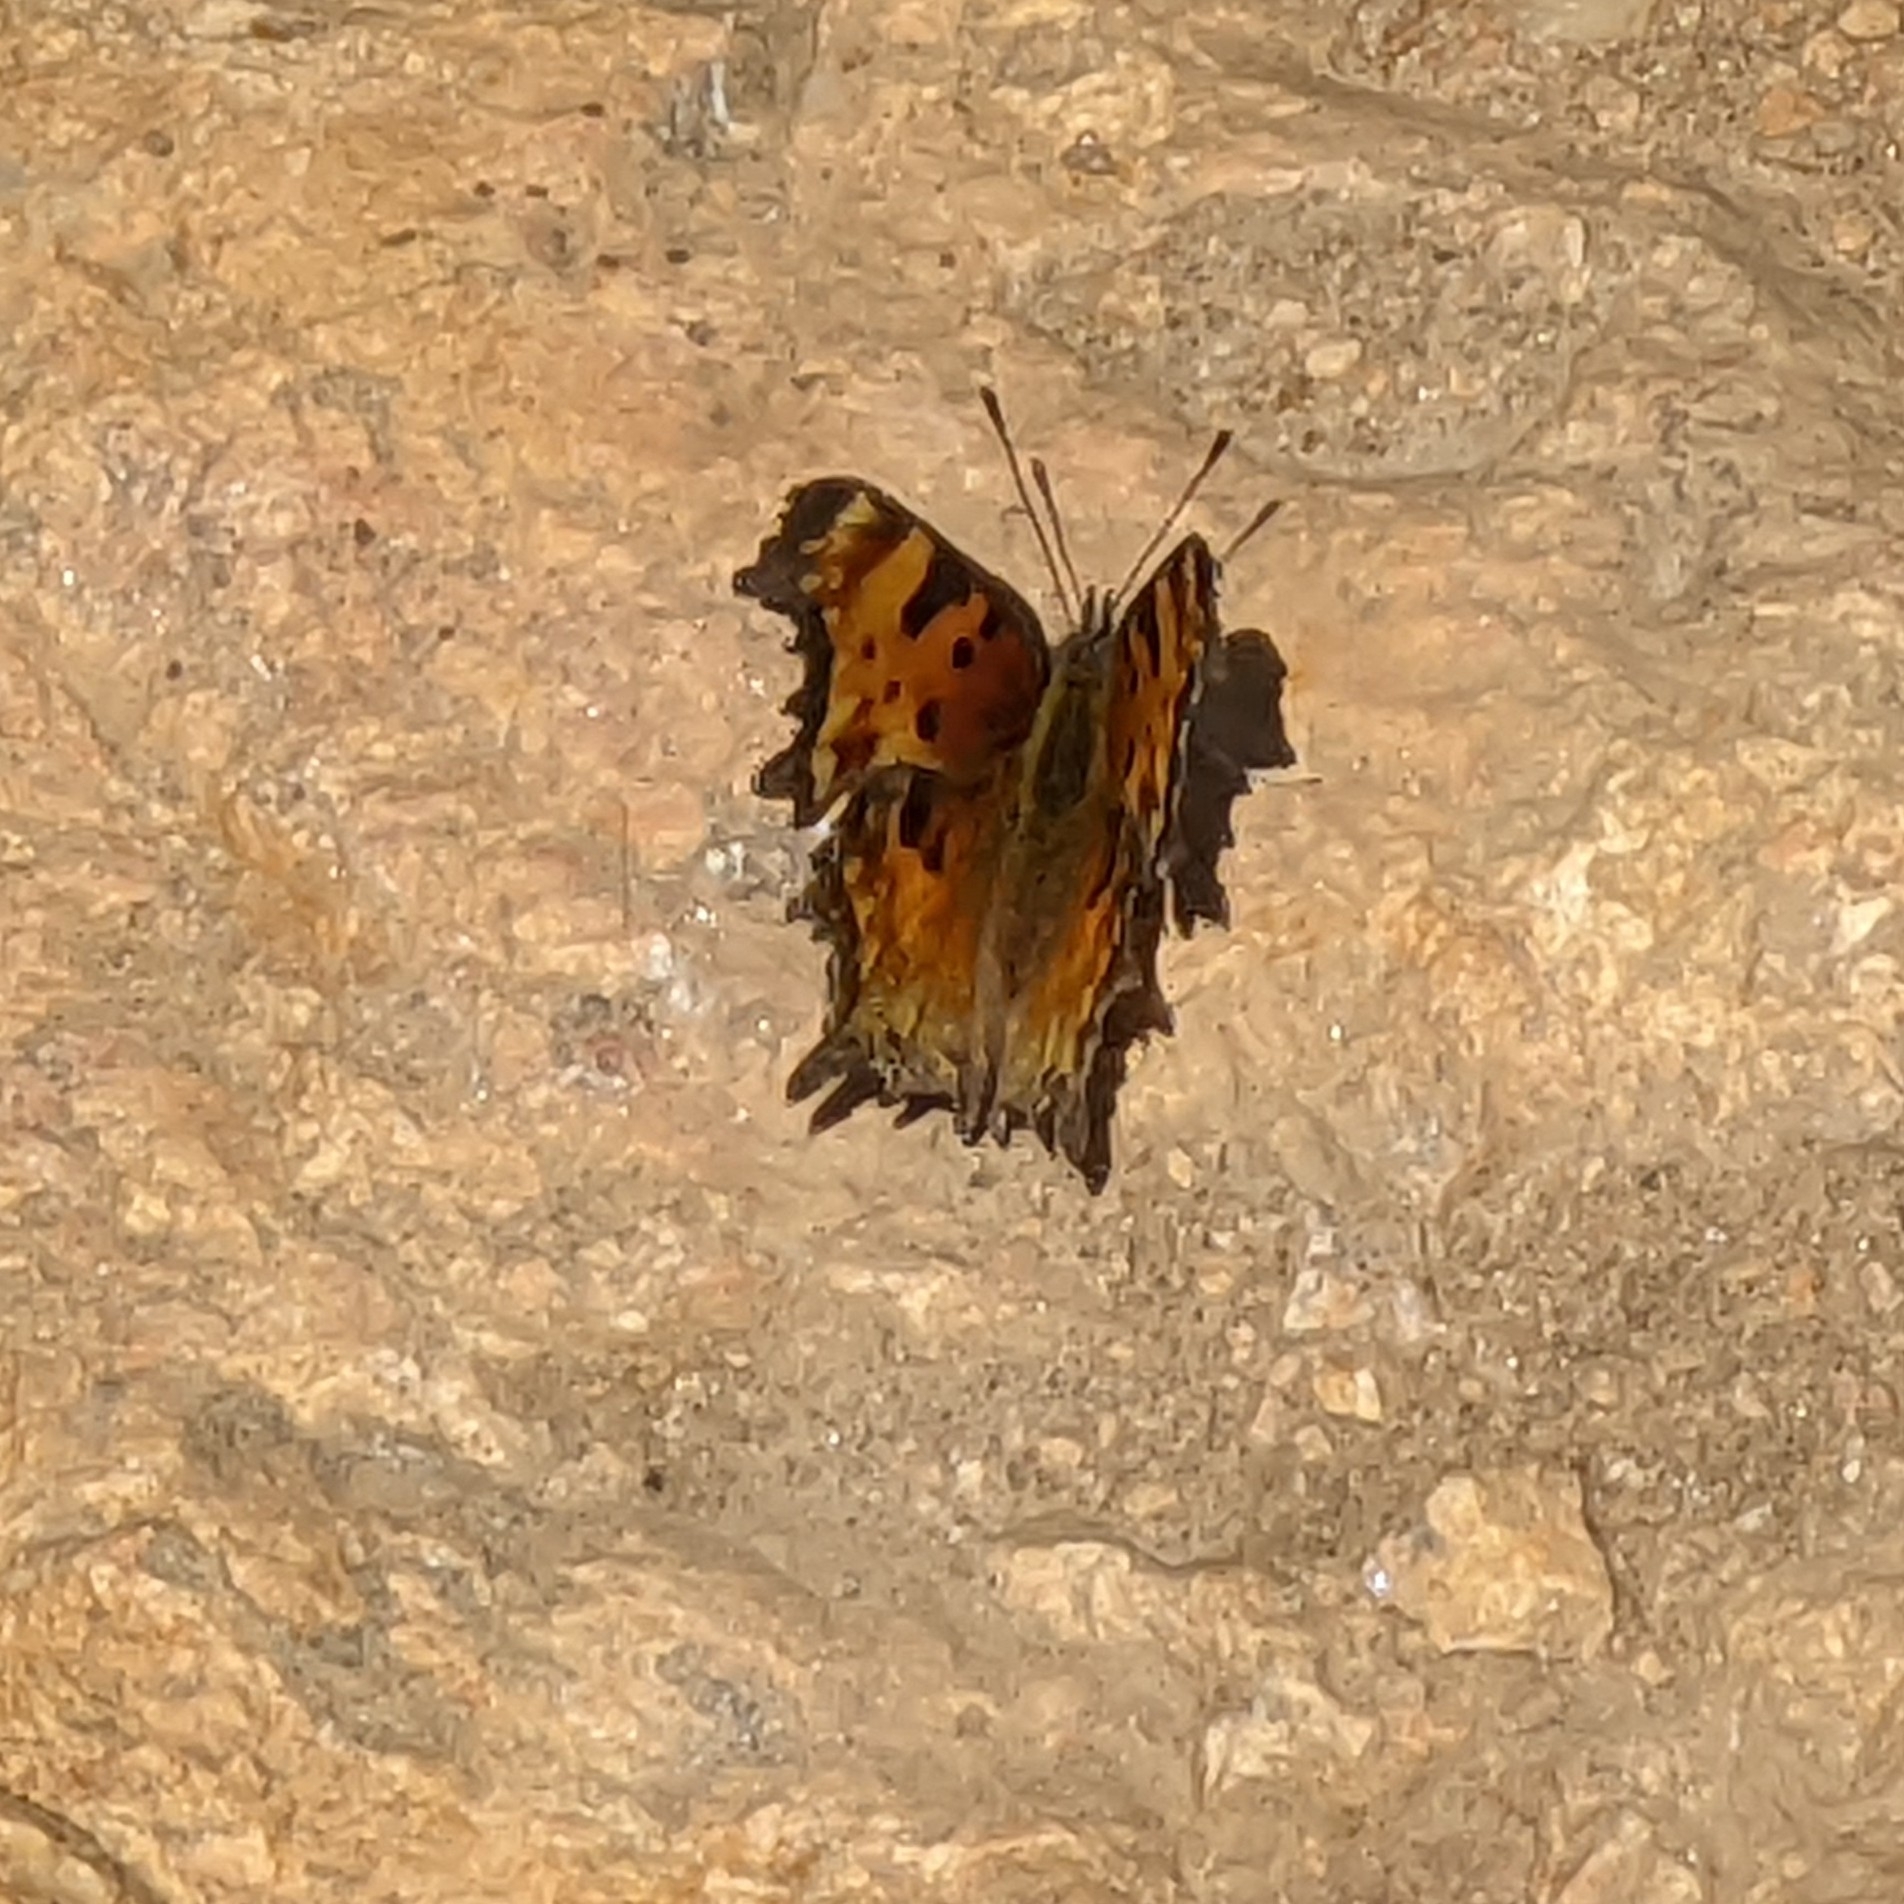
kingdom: Animalia
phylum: Arthropoda
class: Insecta
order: Lepidoptera
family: Nymphalidae
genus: Polygonia
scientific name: Polygonia gracilis
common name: Hoary comma
